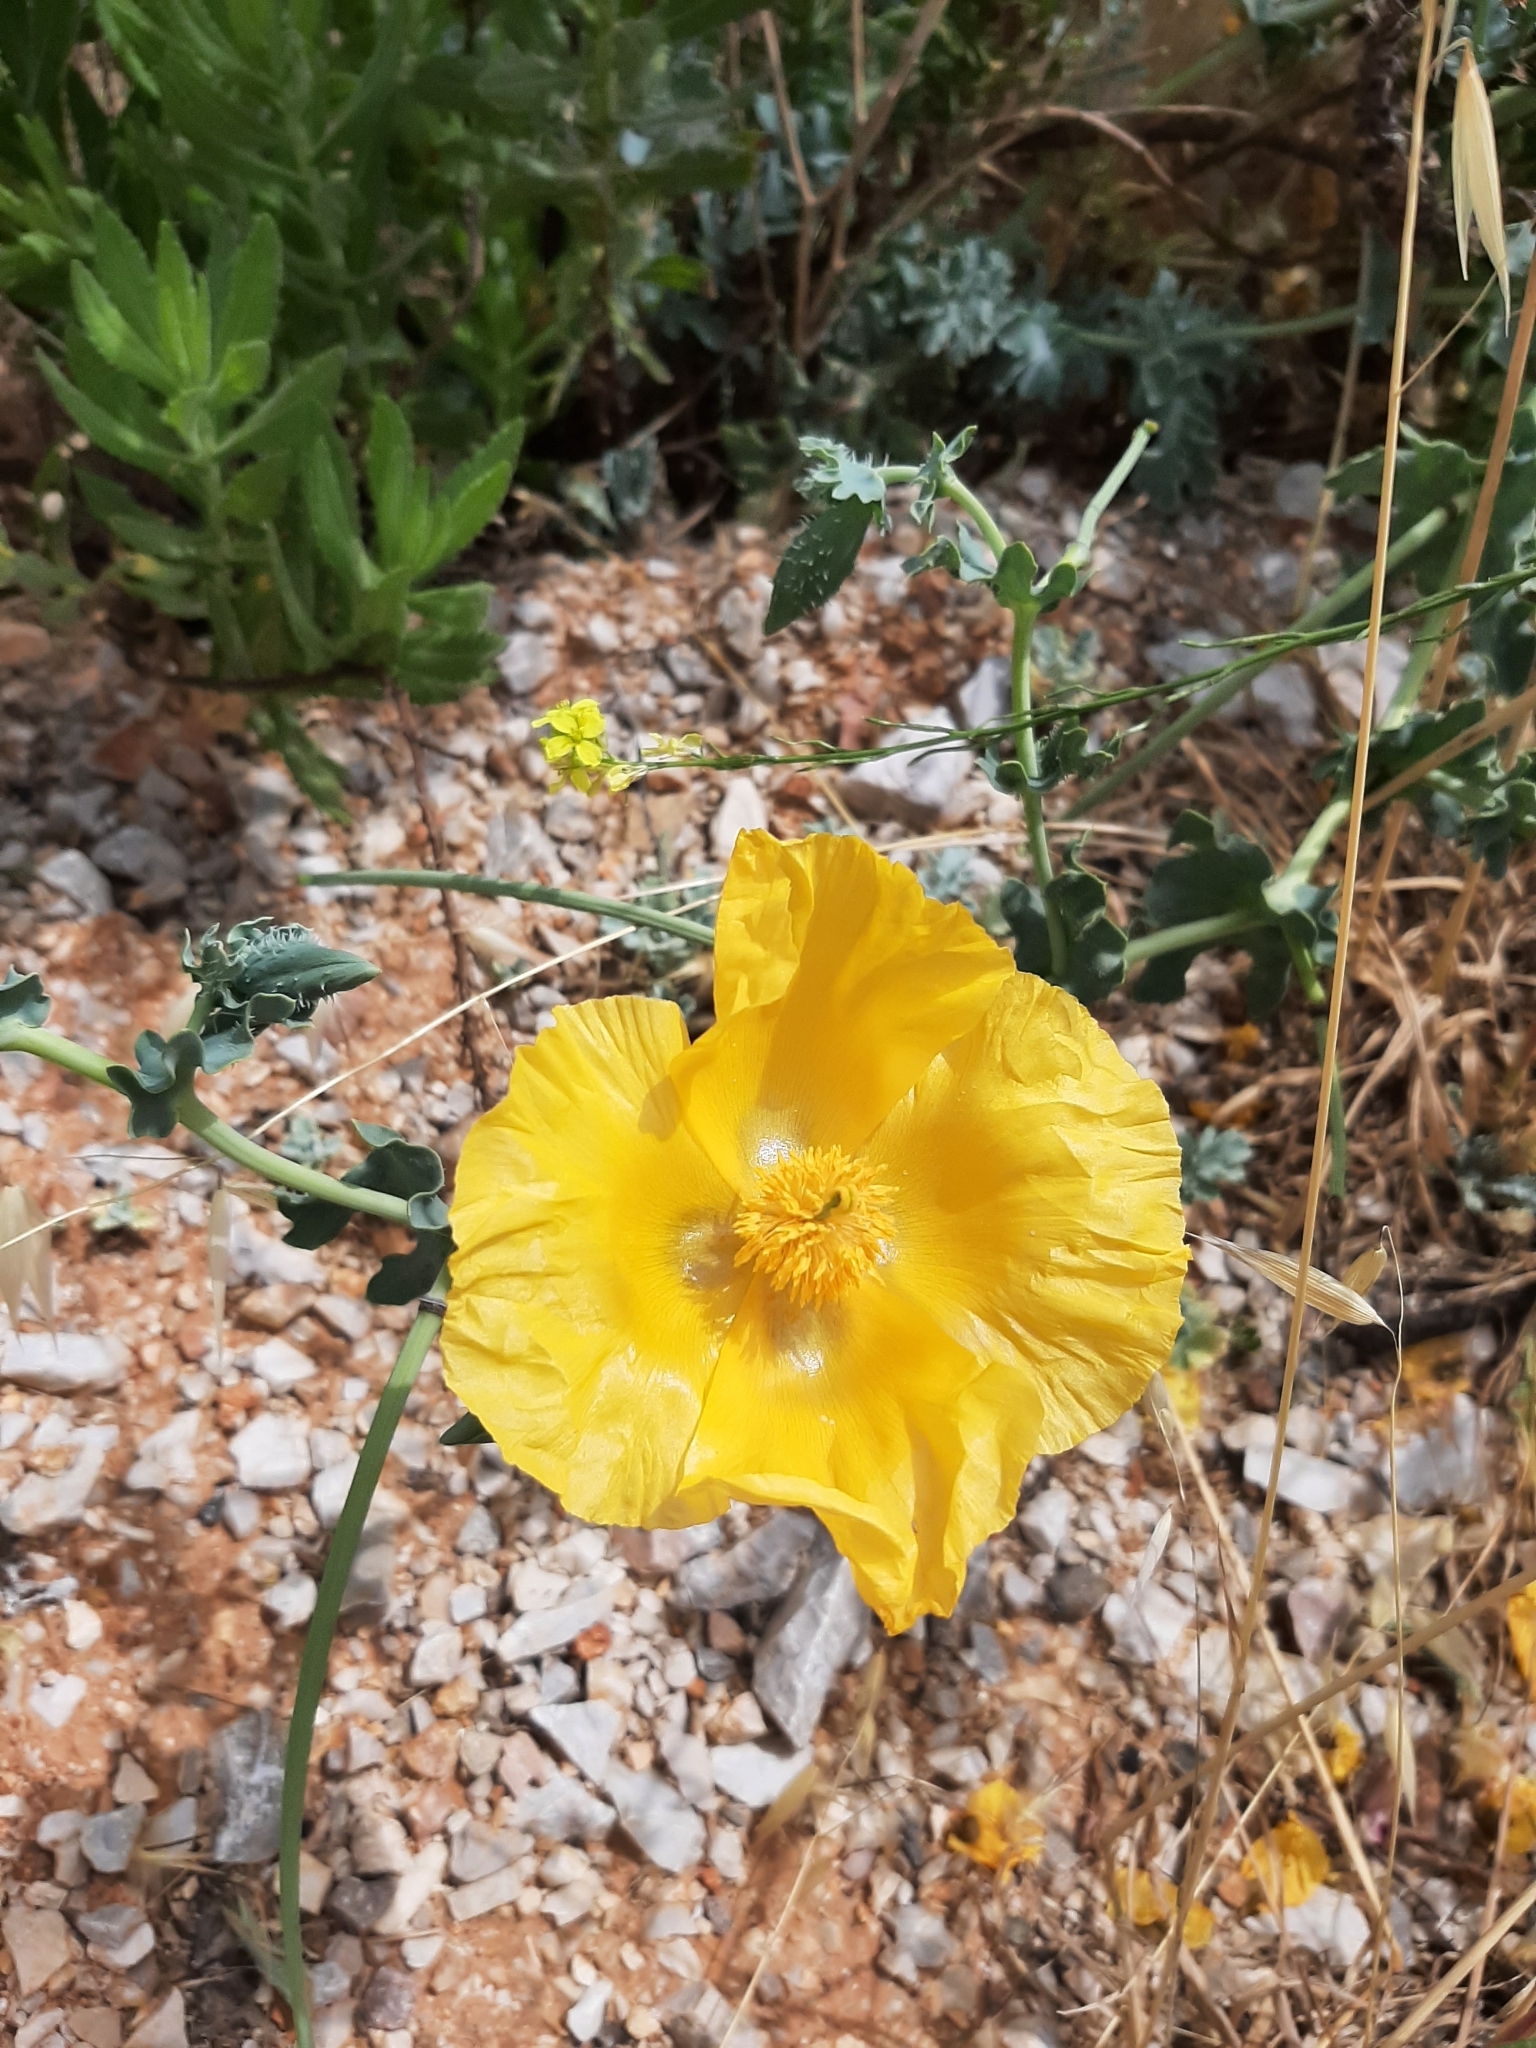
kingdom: Plantae
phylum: Tracheophyta
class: Magnoliopsida
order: Ranunculales
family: Papaveraceae
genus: Glaucium
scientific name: Glaucium flavum
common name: Yellow horned-poppy
